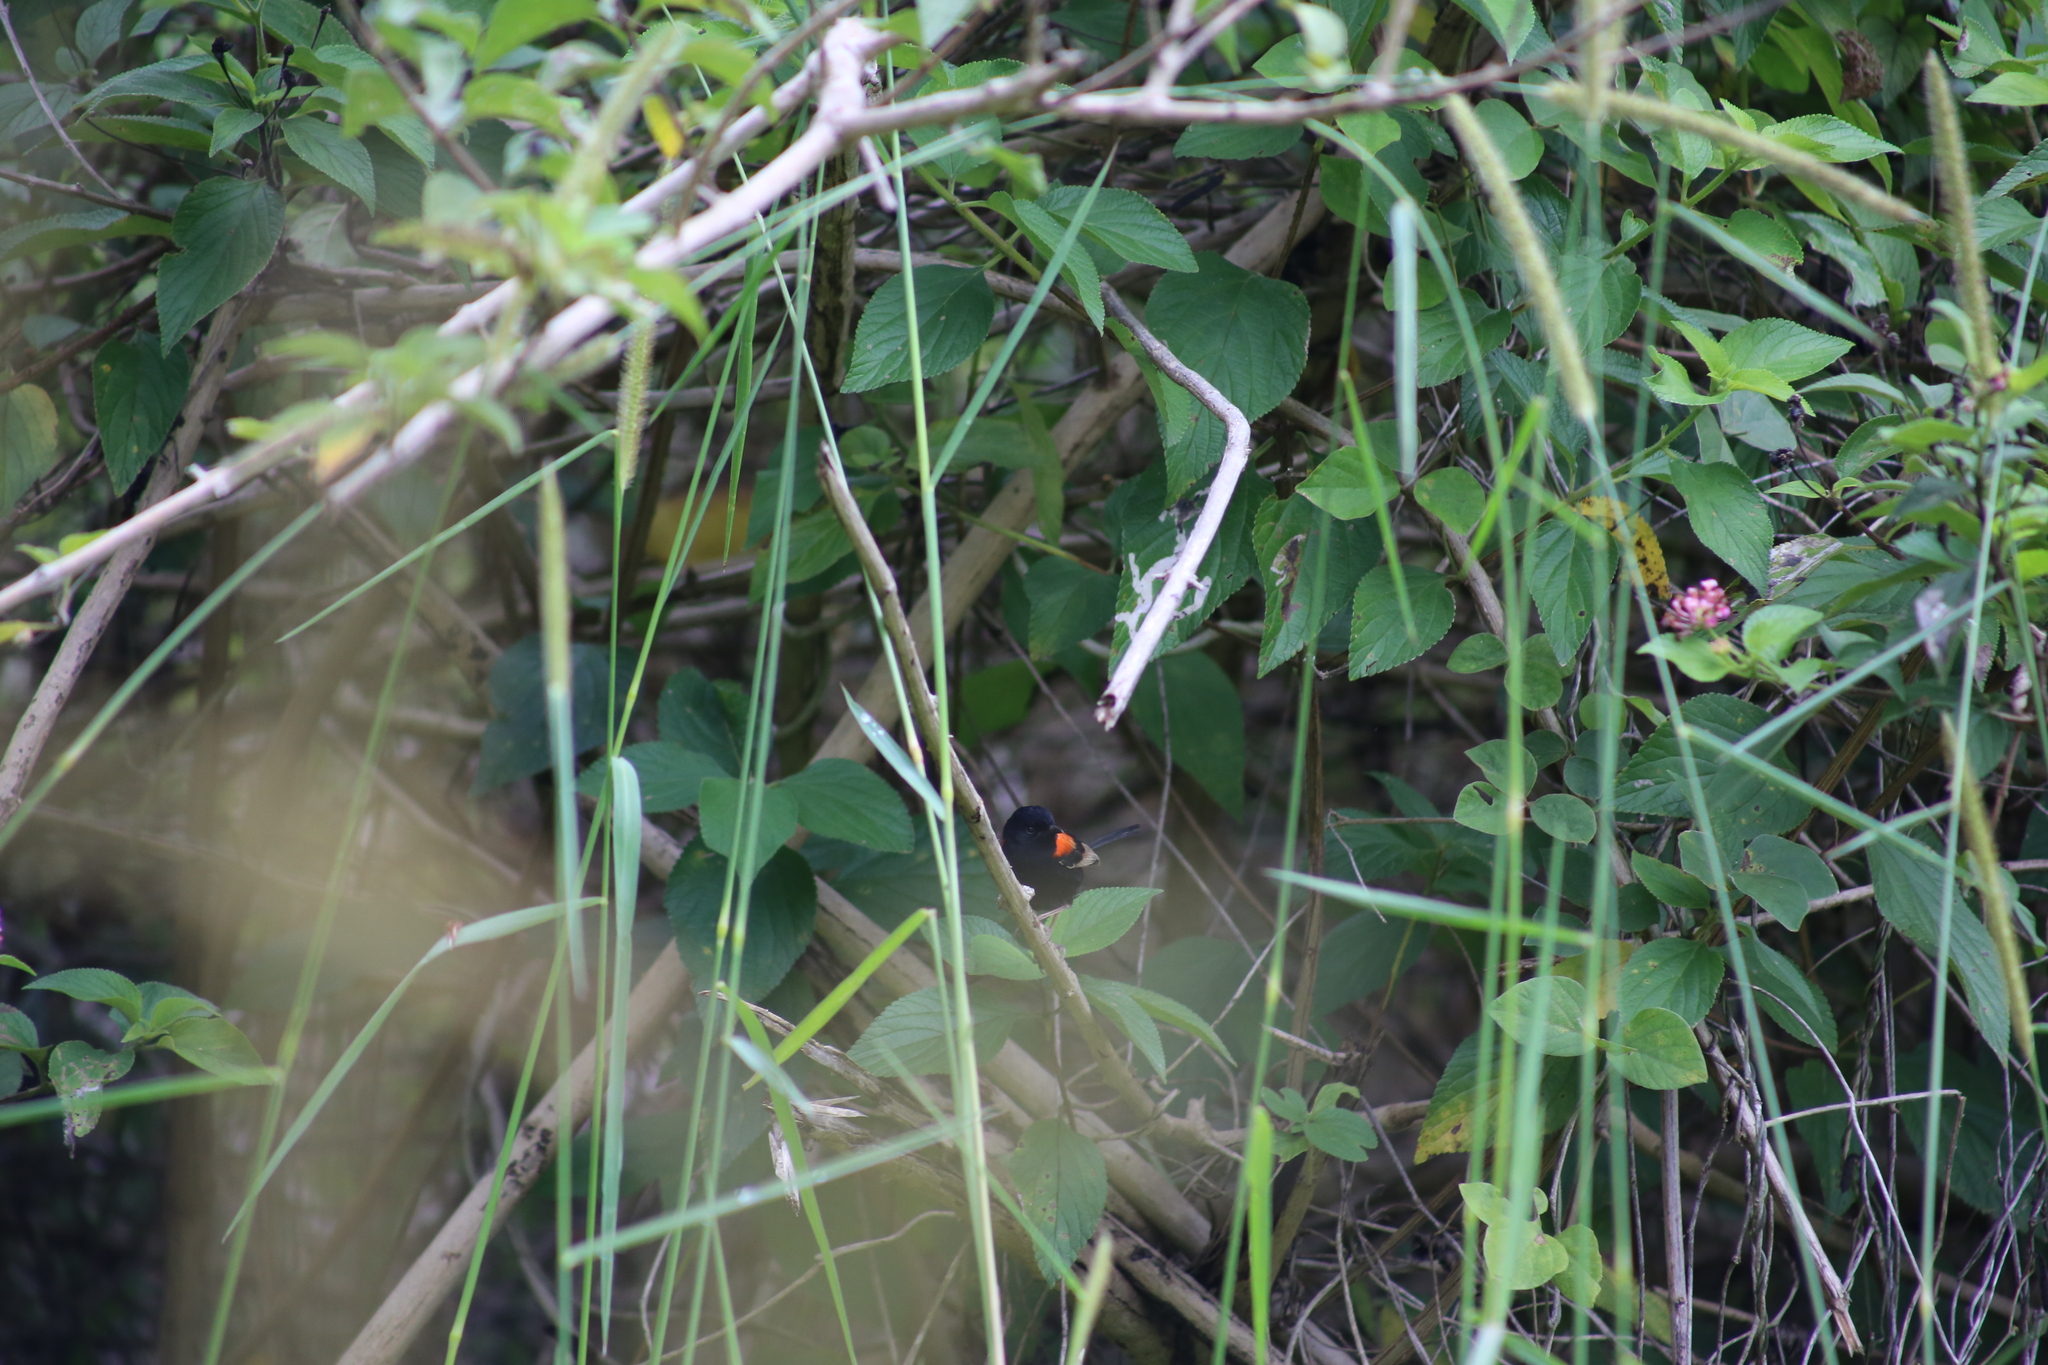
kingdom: Animalia
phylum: Chordata
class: Aves
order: Passeriformes
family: Maluridae
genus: Malurus
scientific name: Malurus melanocephalus
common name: Red-backed fairywren
